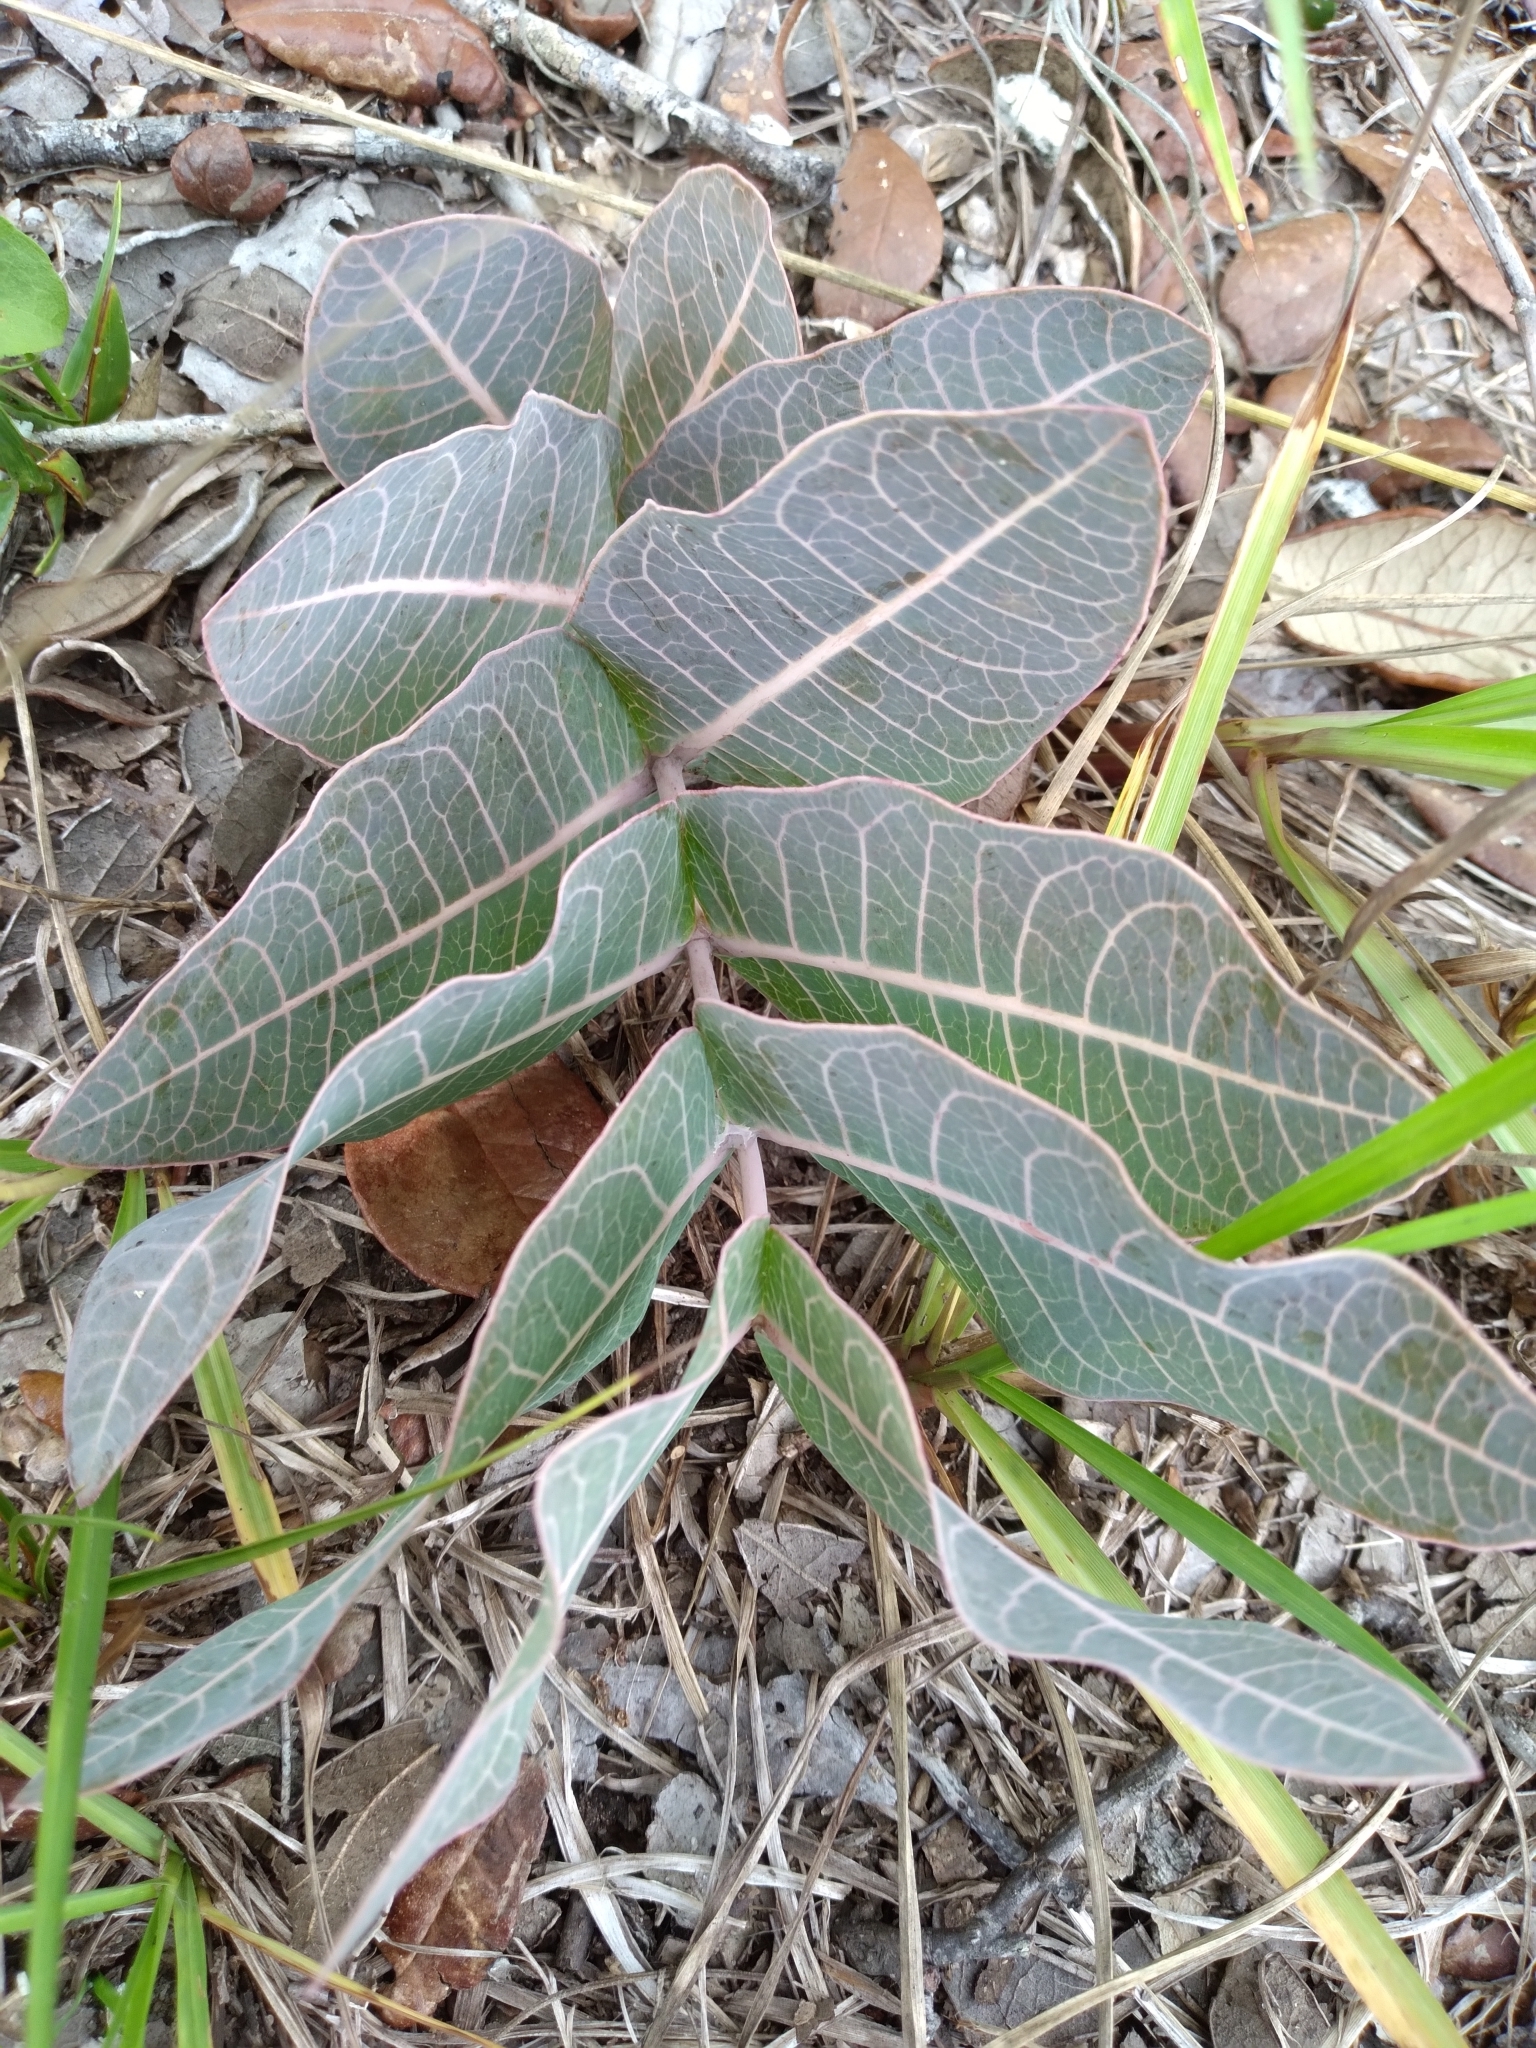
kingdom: Plantae
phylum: Tracheophyta
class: Magnoliopsida
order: Gentianales
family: Apocynaceae
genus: Asclepias
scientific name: Asclepias humistrata
